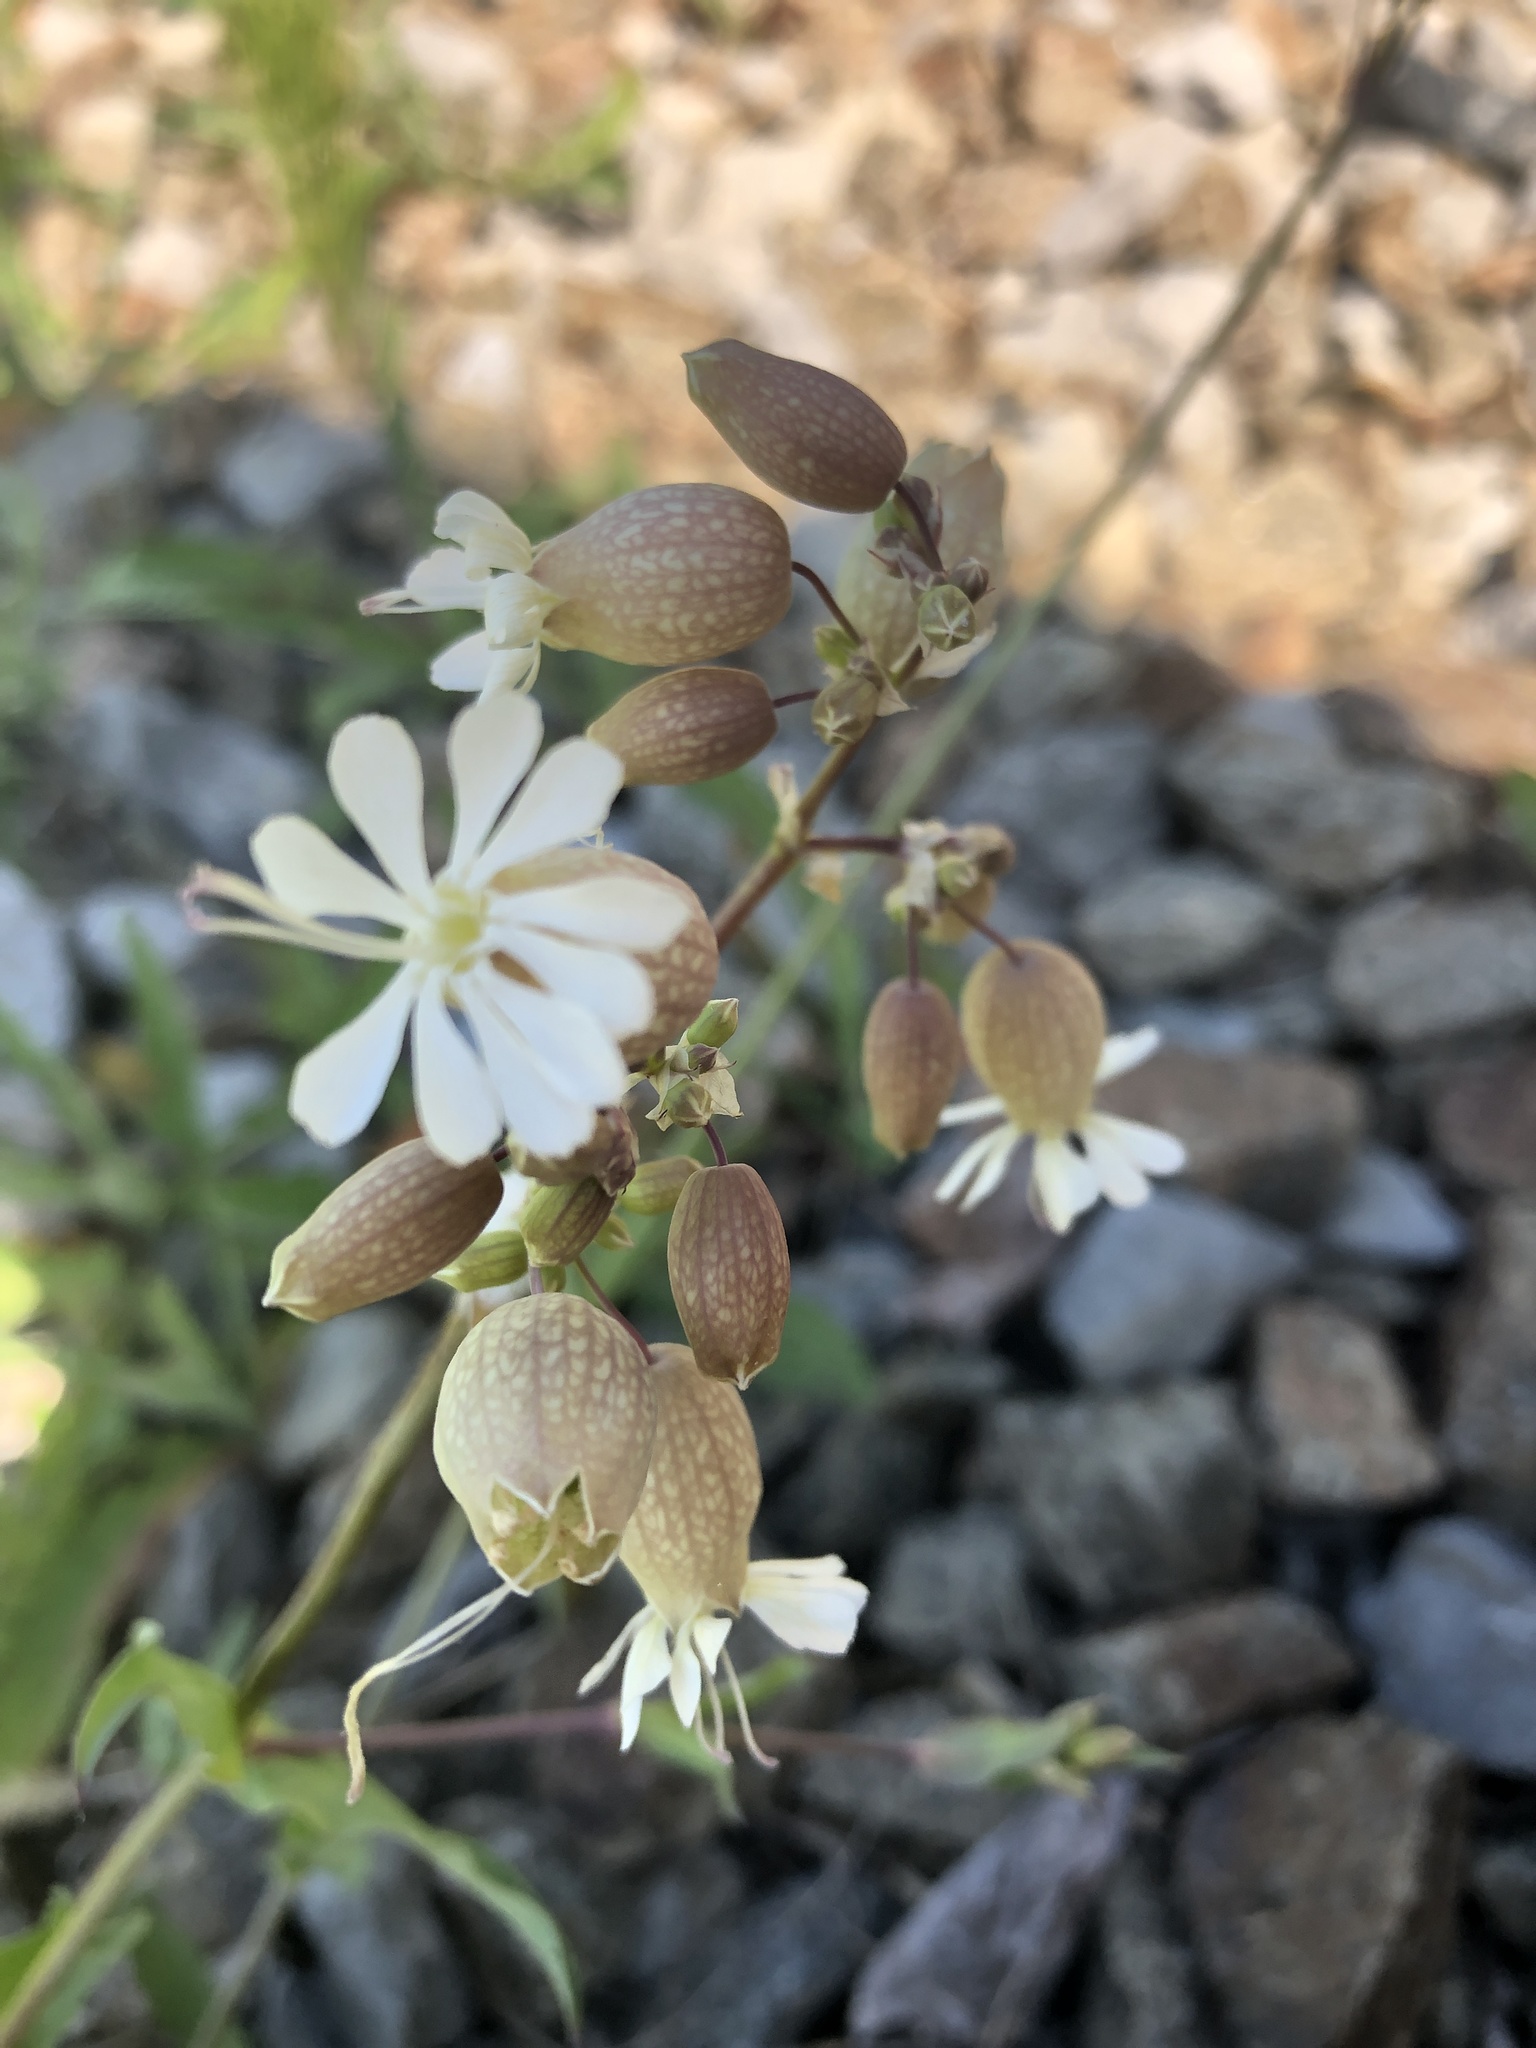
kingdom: Plantae
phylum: Tracheophyta
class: Magnoliopsida
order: Caryophyllales
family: Caryophyllaceae
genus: Silene
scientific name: Silene vulgaris
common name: Bladder campion
